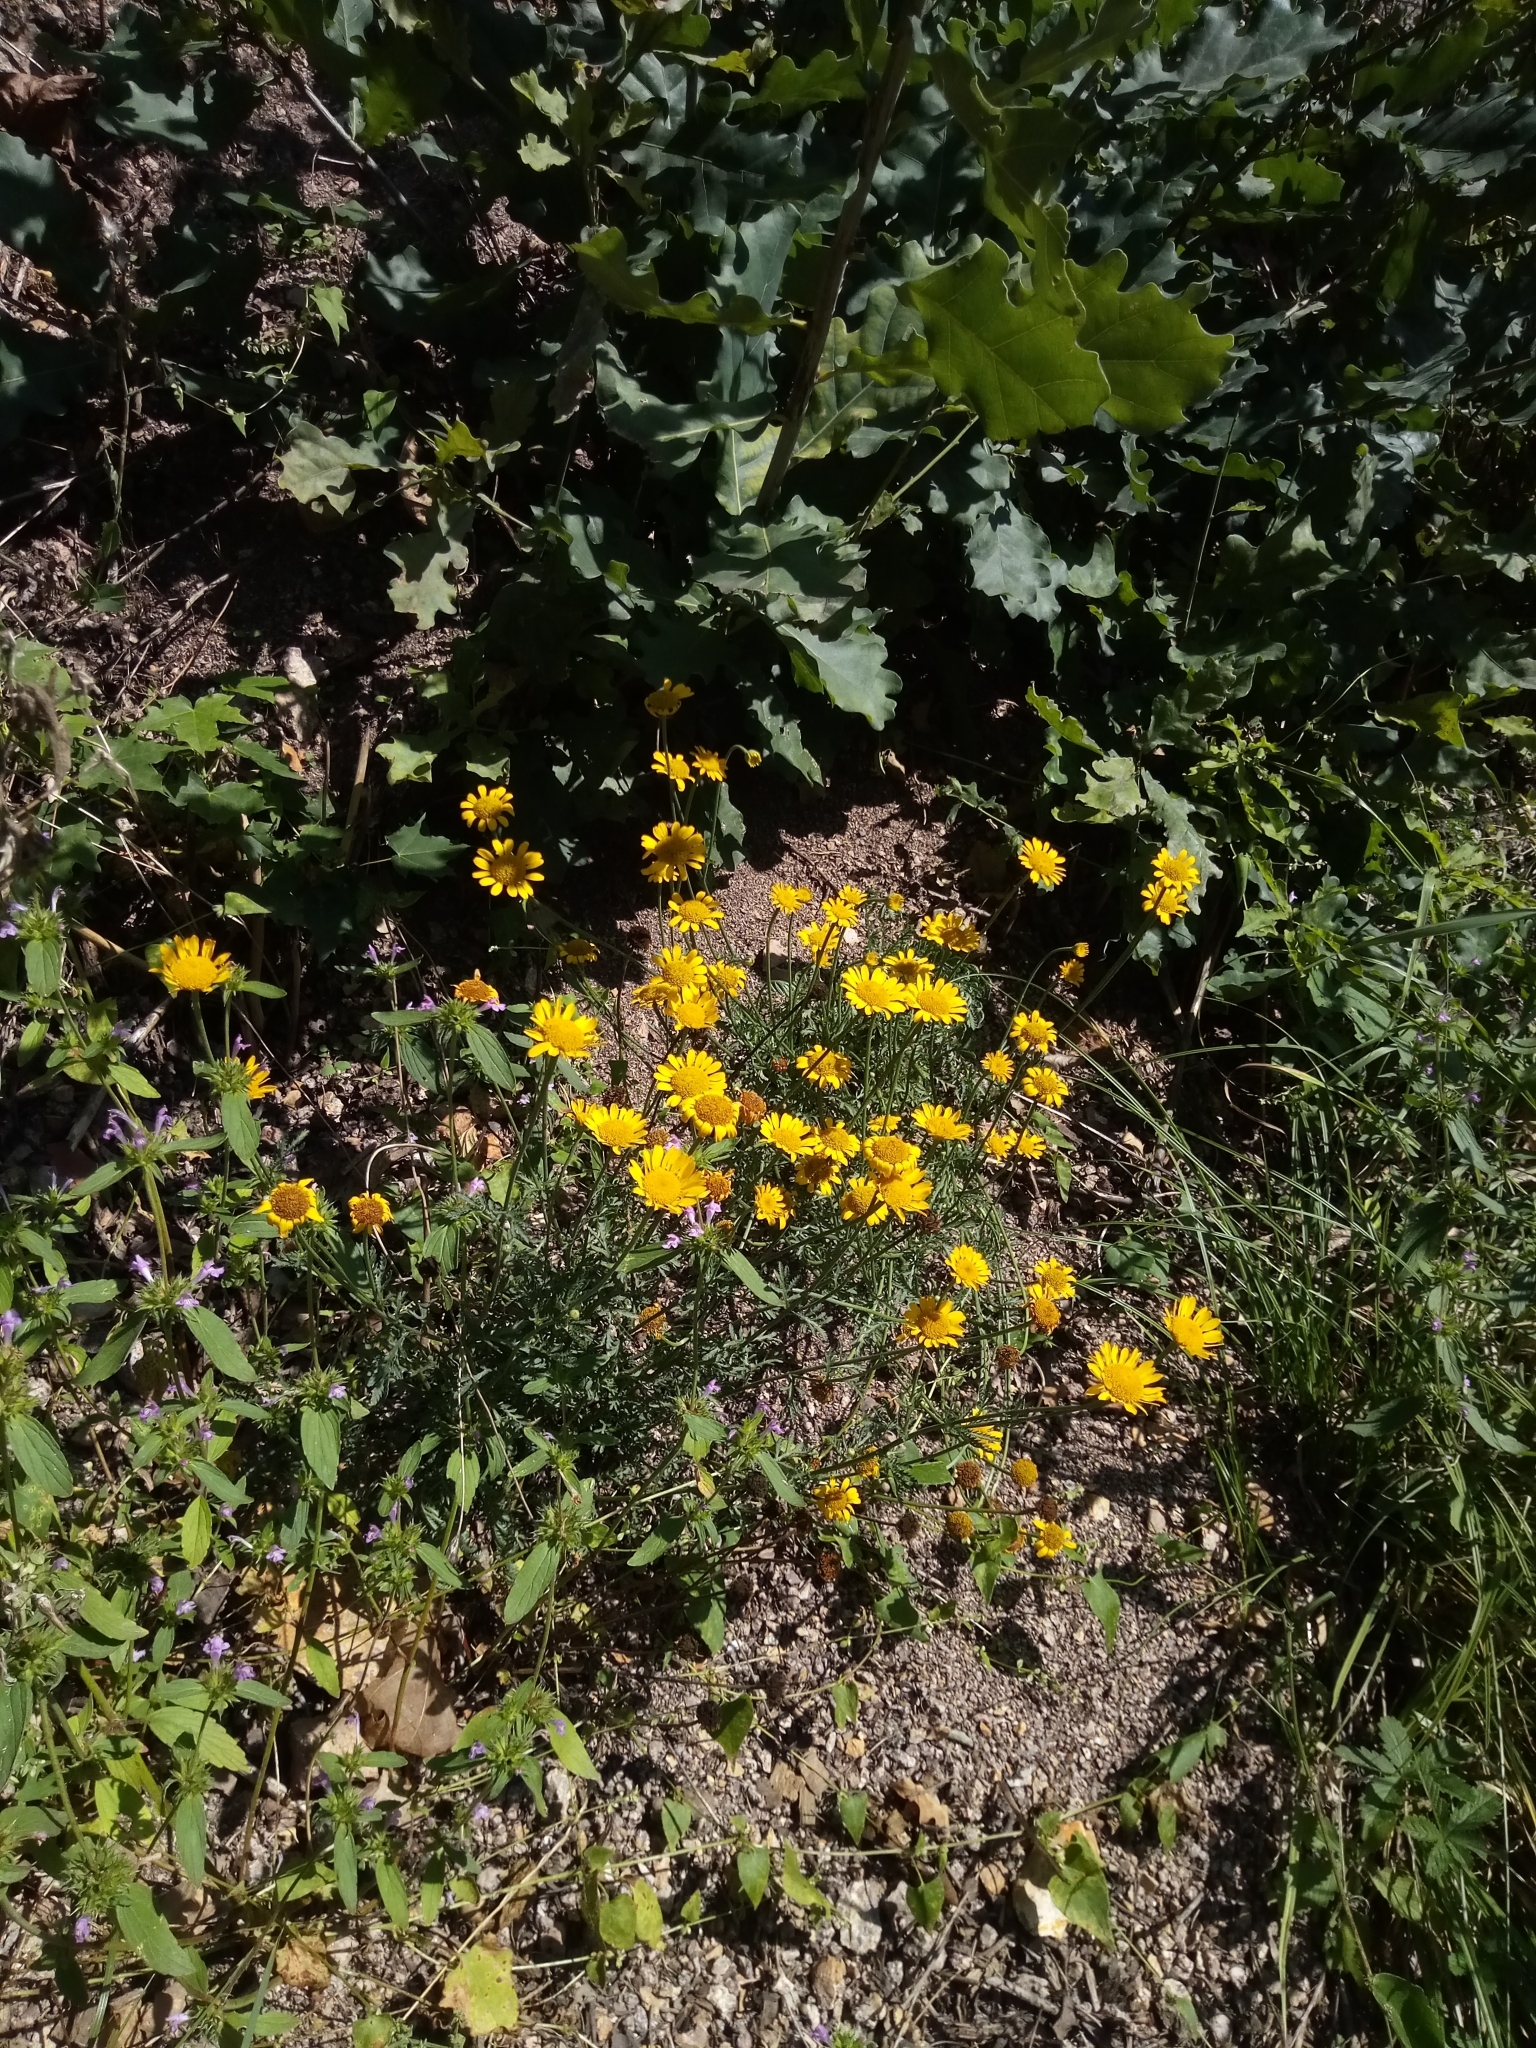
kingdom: Plantae
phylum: Tracheophyta
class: Magnoliopsida
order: Asterales
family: Asteraceae
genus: Cota
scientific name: Cota tinctoria
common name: Golden chamomile
